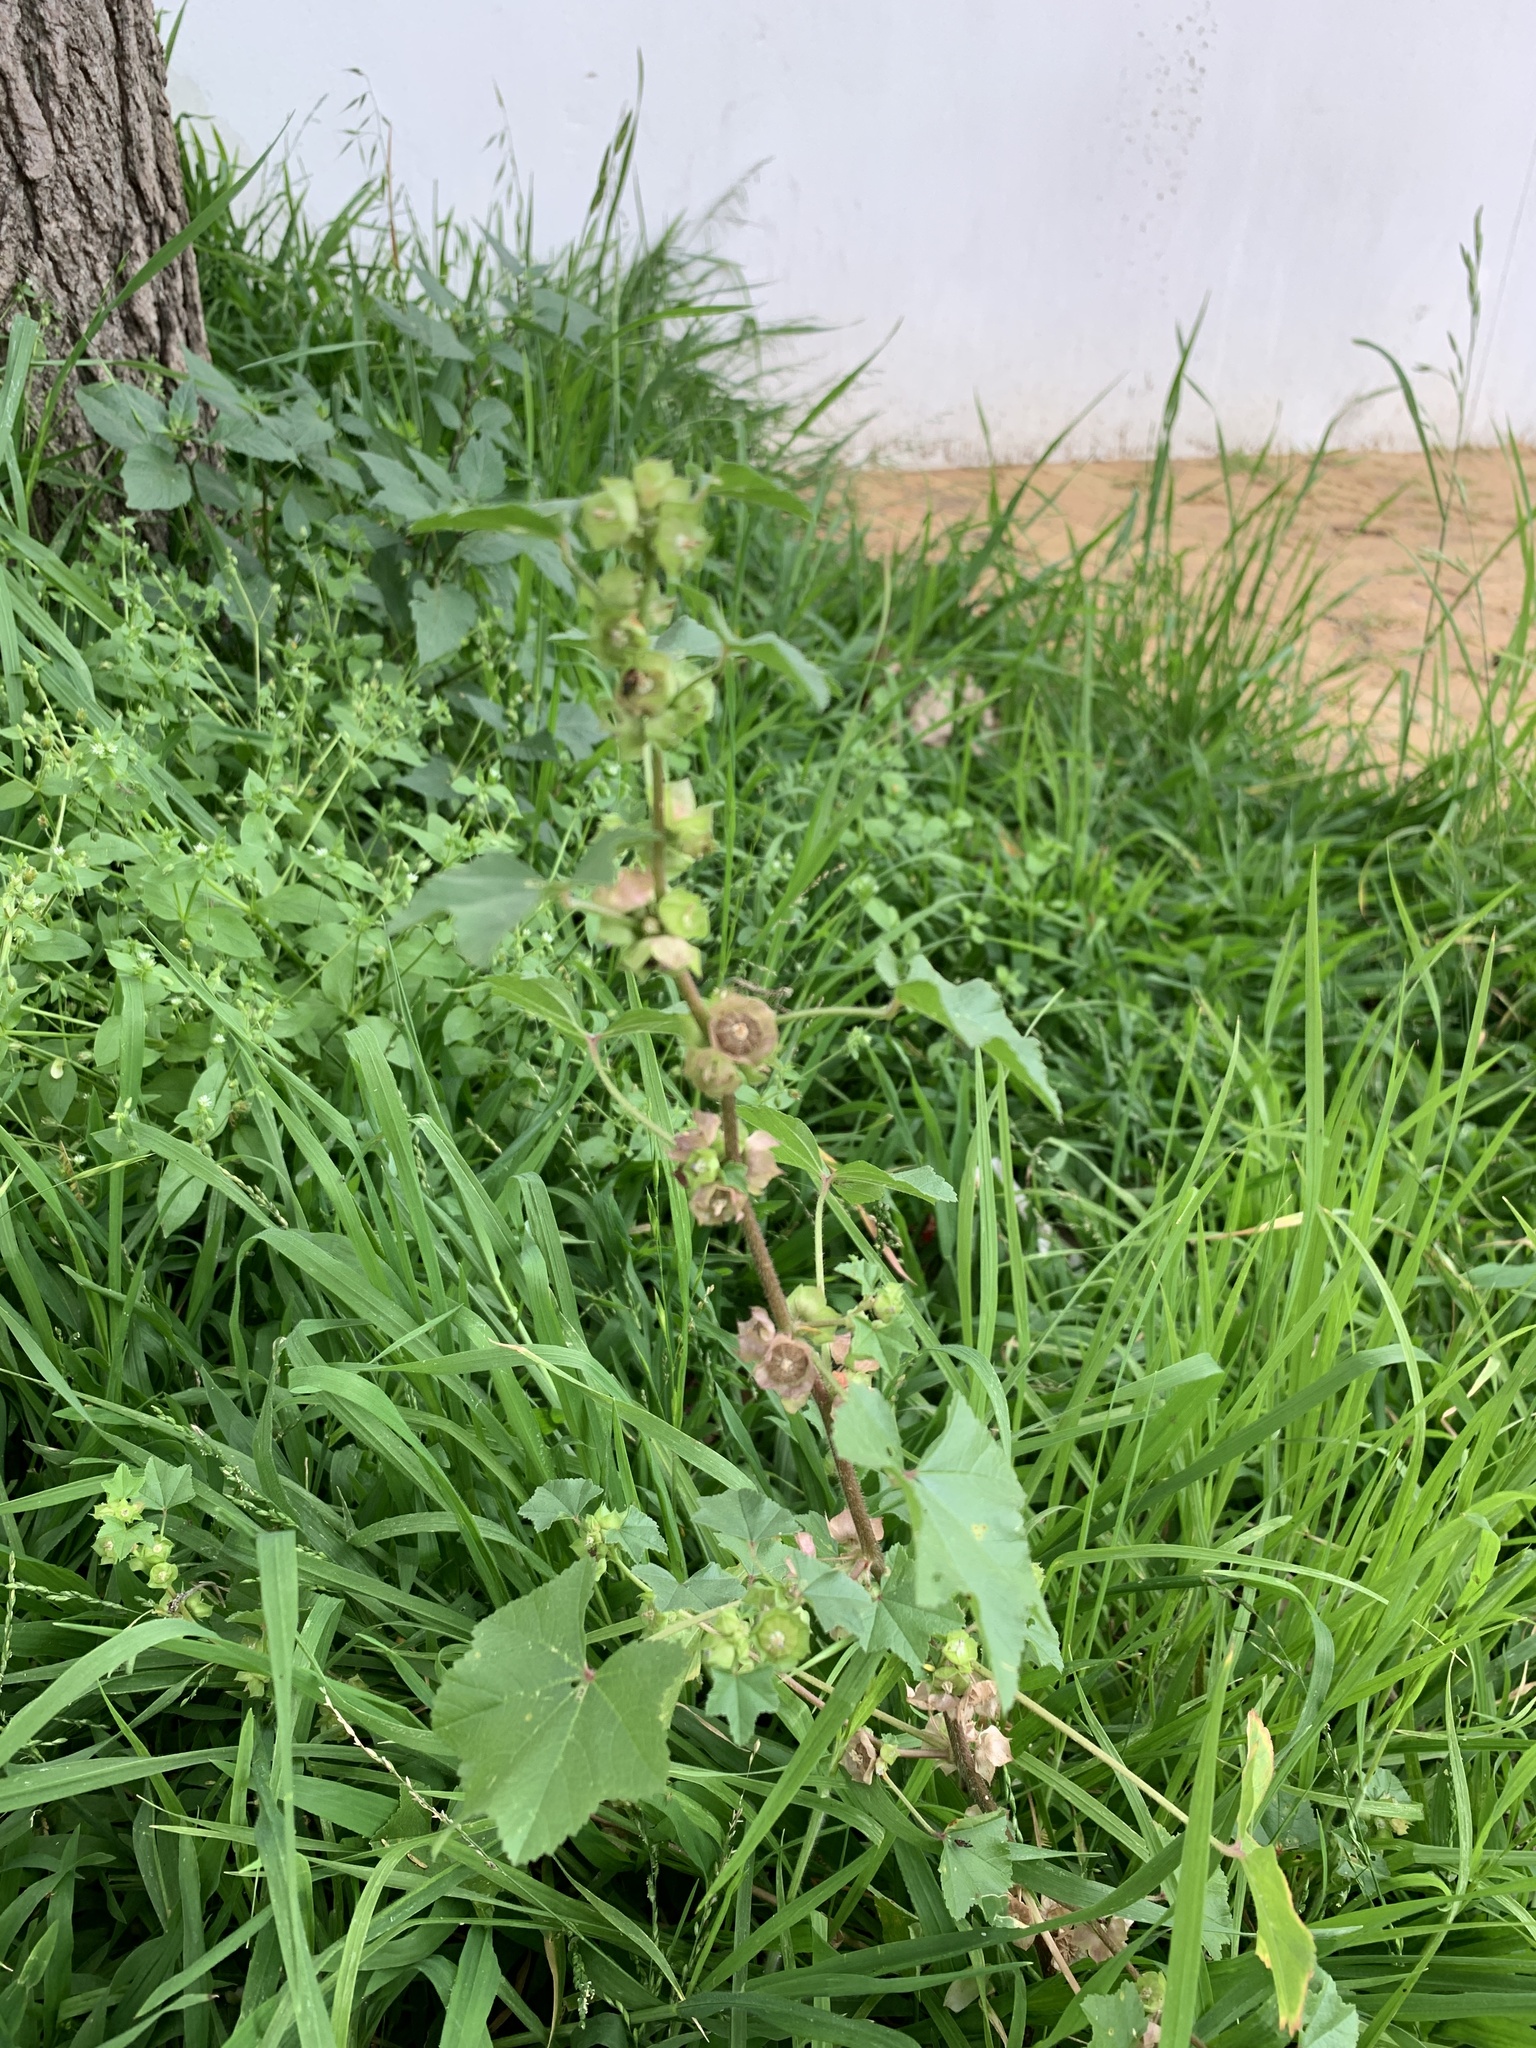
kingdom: Plantae
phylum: Tracheophyta
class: Magnoliopsida
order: Malvales
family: Malvaceae
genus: Malva
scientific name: Malva parviflora
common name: Least mallow
